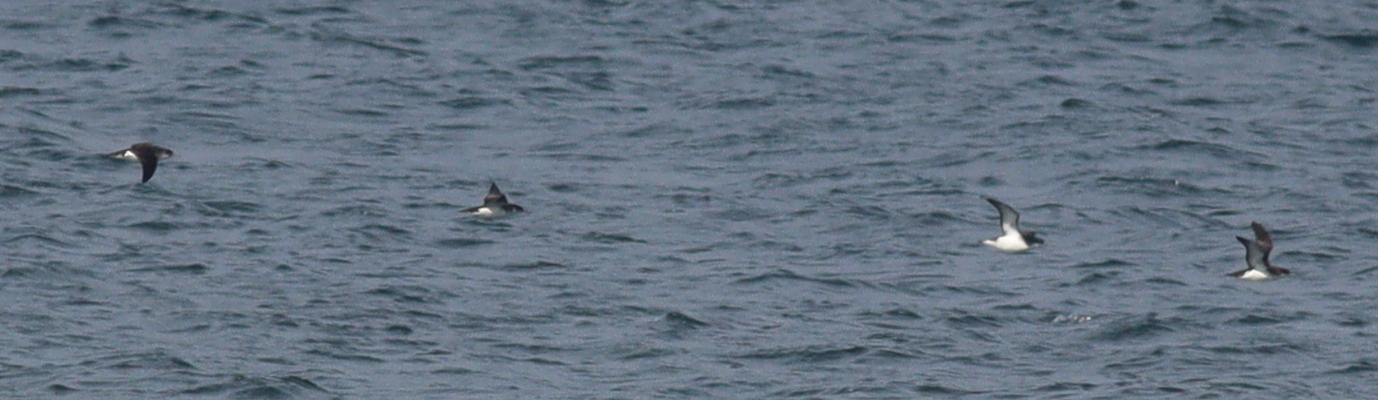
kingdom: Animalia
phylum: Chordata
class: Aves
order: Procellariiformes
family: Procellariidae
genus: Puffinus
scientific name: Puffinus puffinus
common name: Manx shearwater
